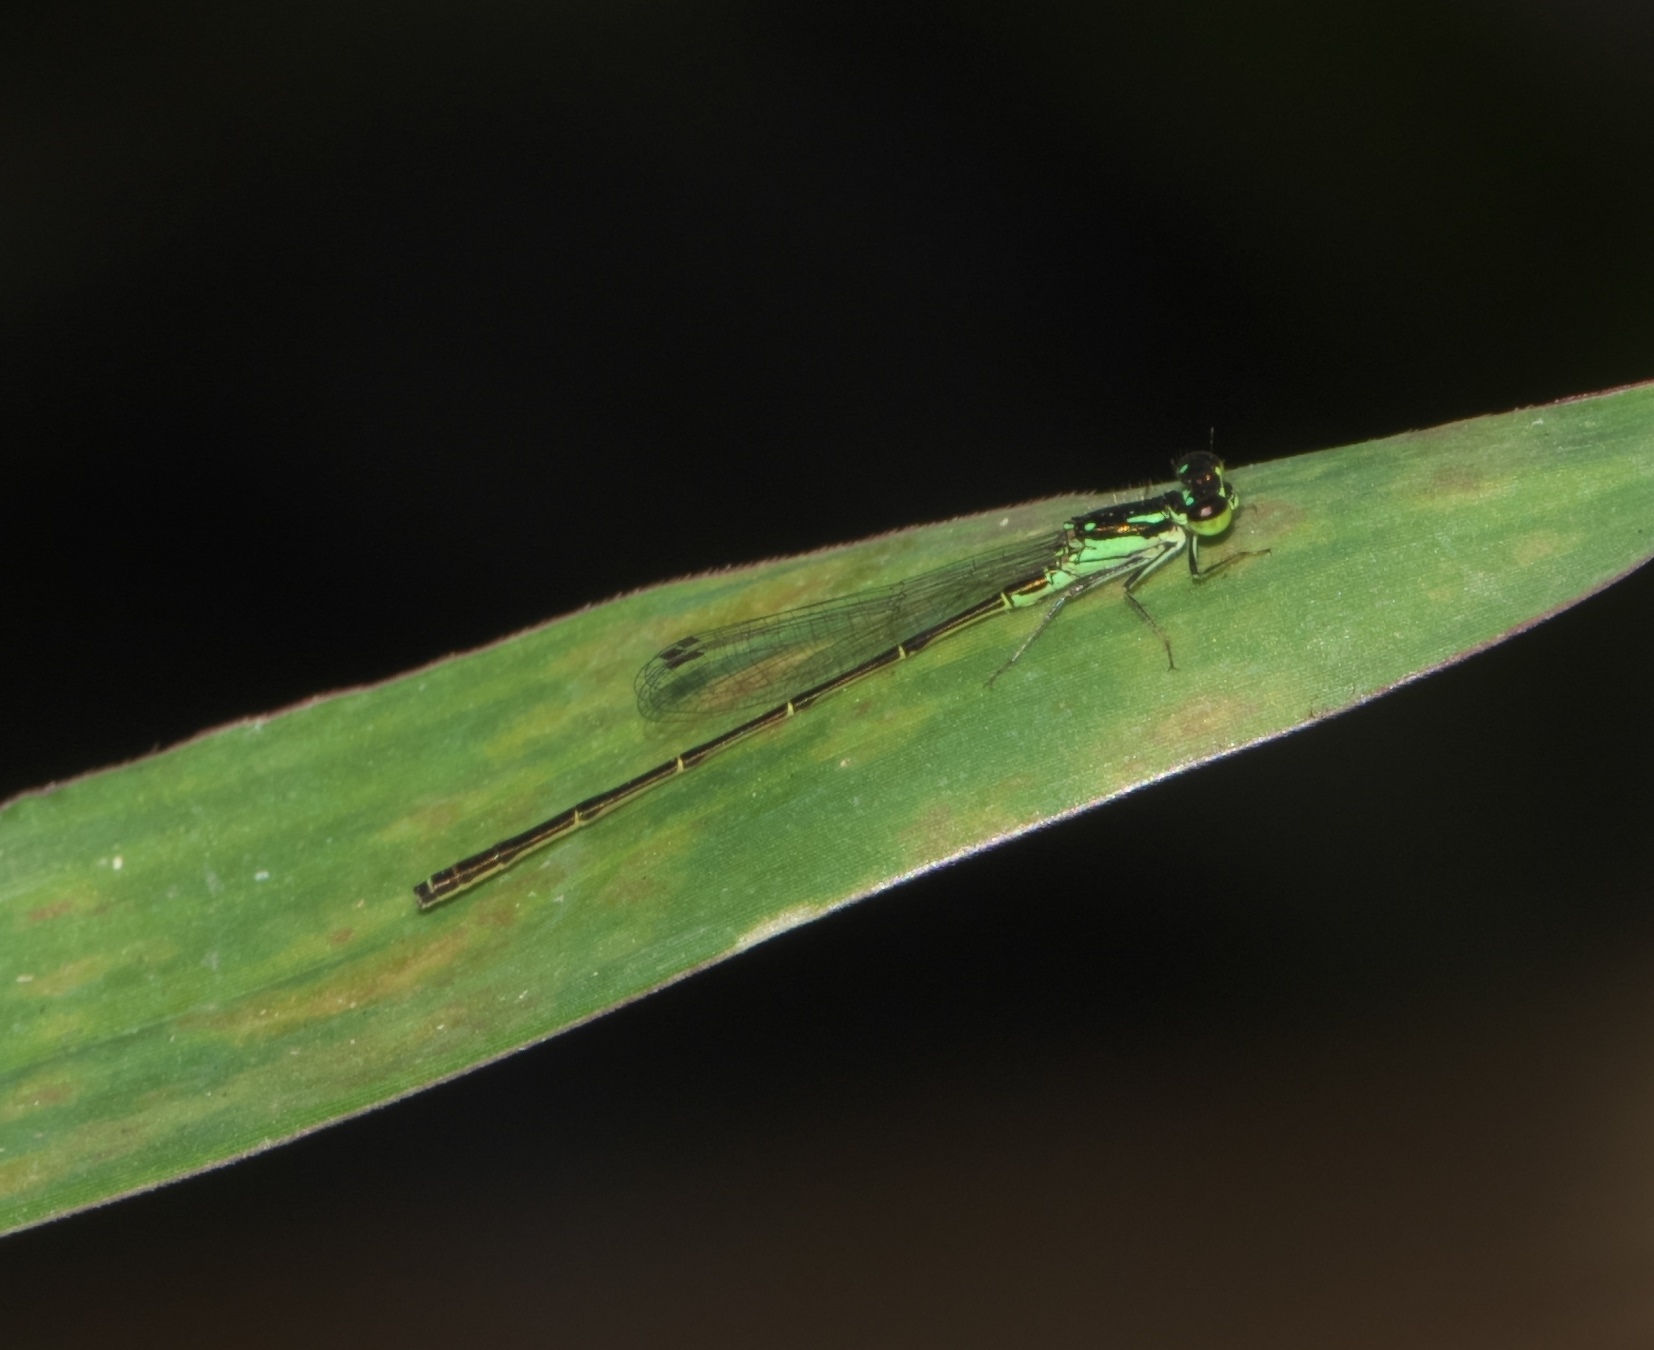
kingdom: Animalia
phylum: Arthropoda
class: Insecta
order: Odonata
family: Coenagrionidae
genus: Ischnura
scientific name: Ischnura posita
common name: Fragile forktail
